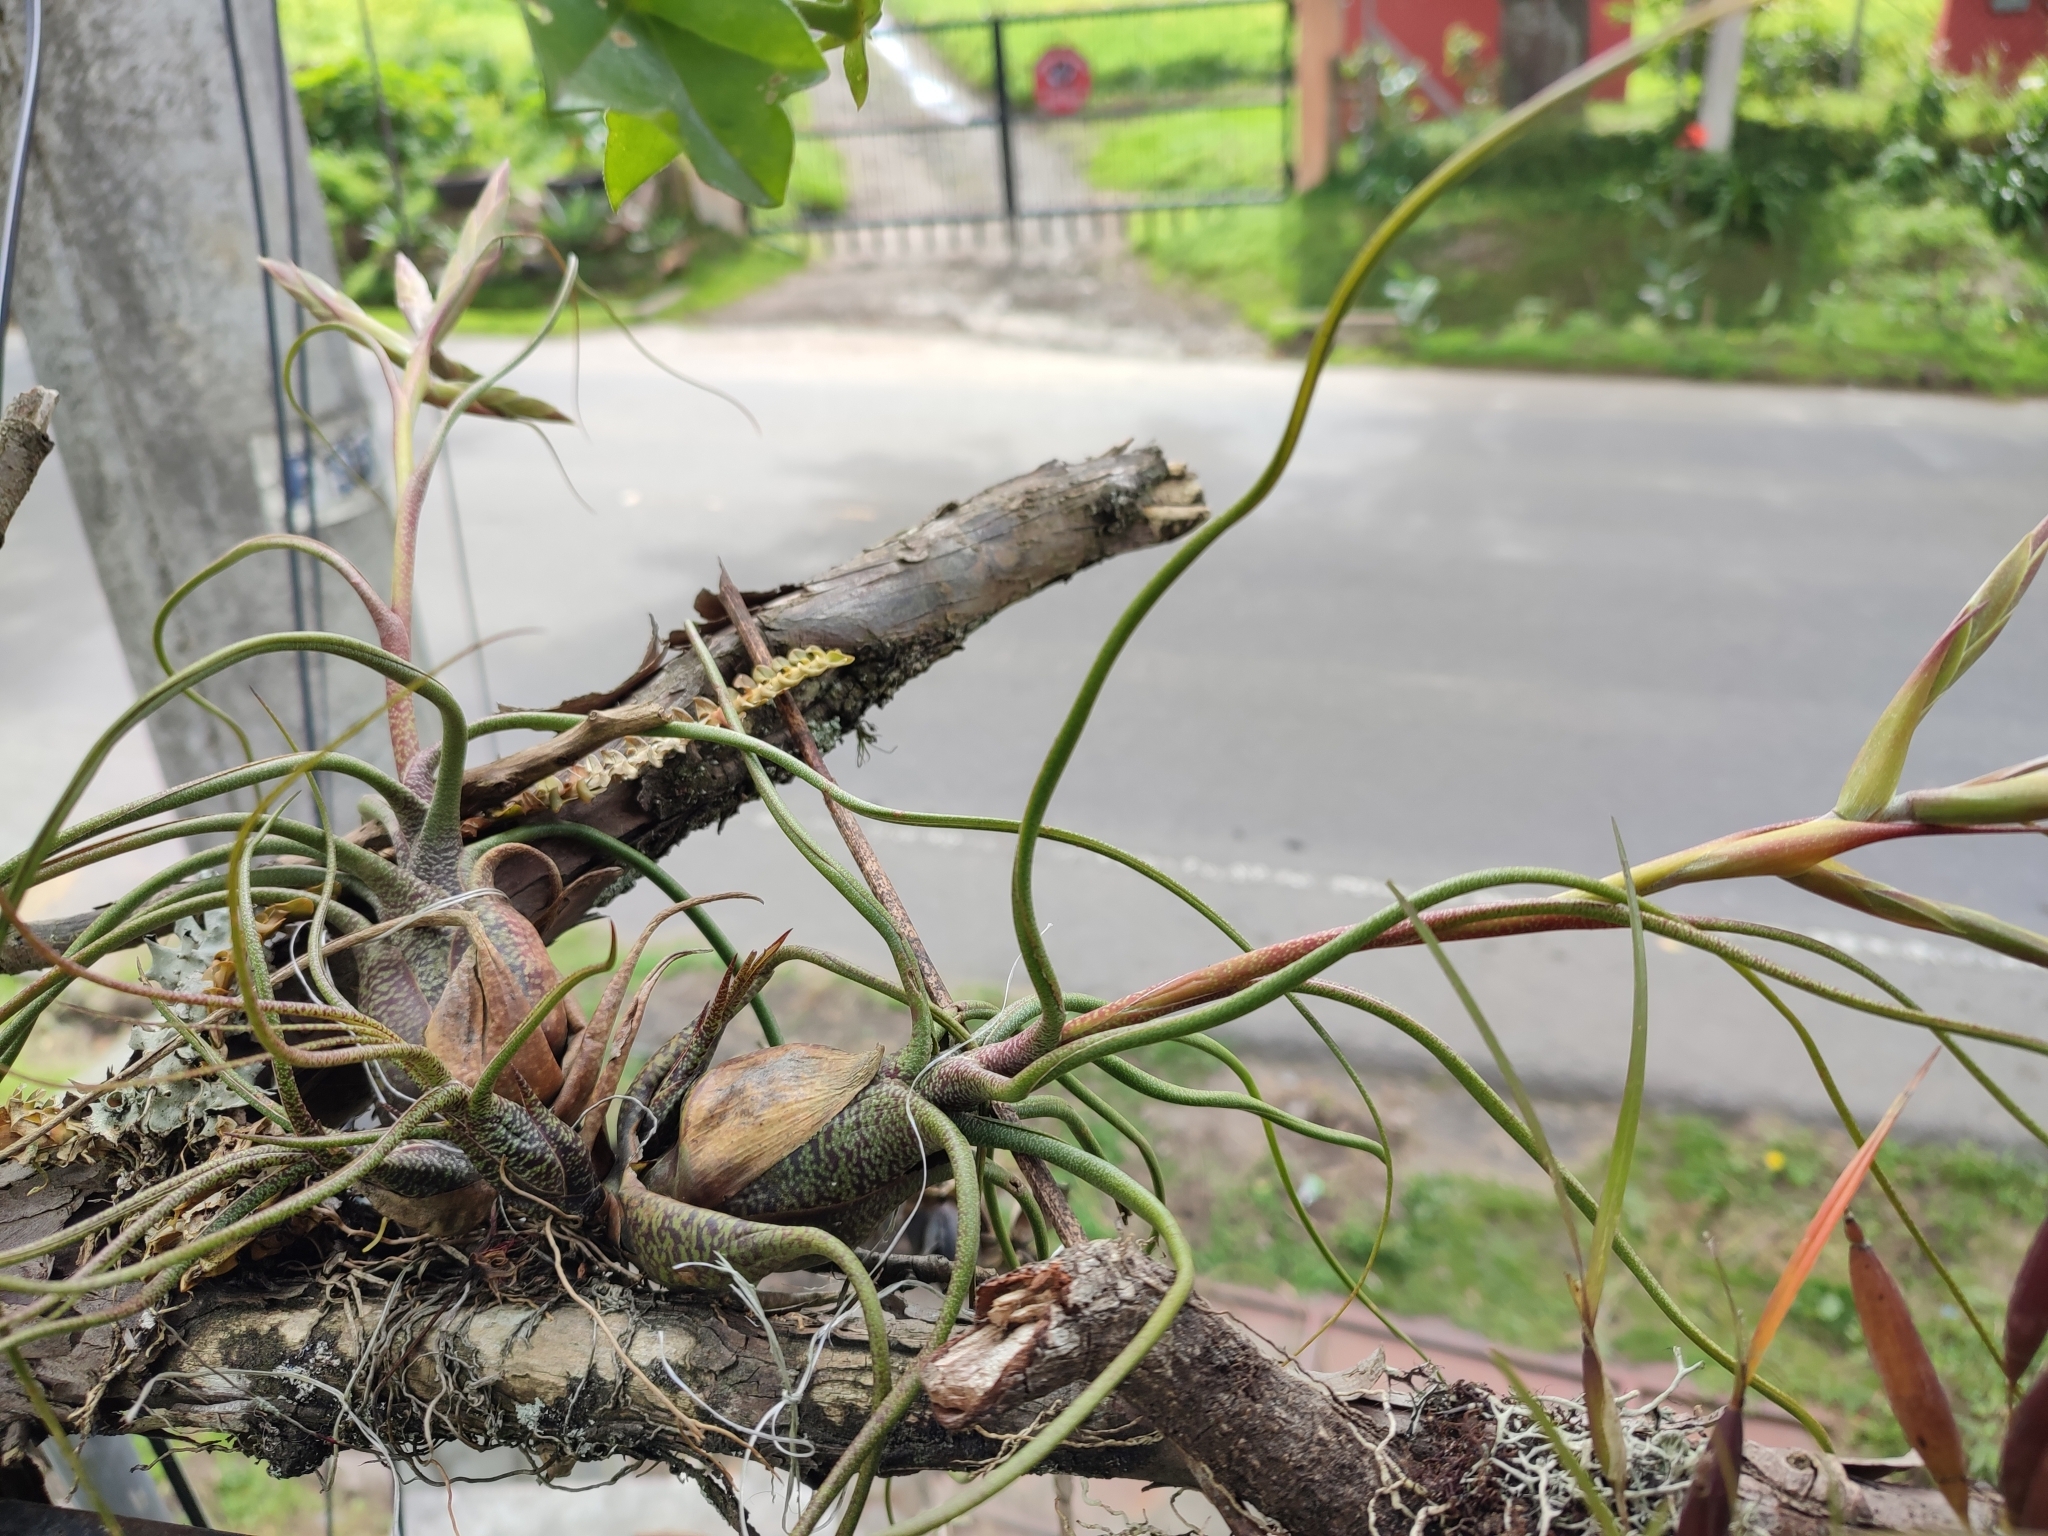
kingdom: Plantae
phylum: Tracheophyta
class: Liliopsida
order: Poales
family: Bromeliaceae
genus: Tillandsia
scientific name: Tillandsia butzii
